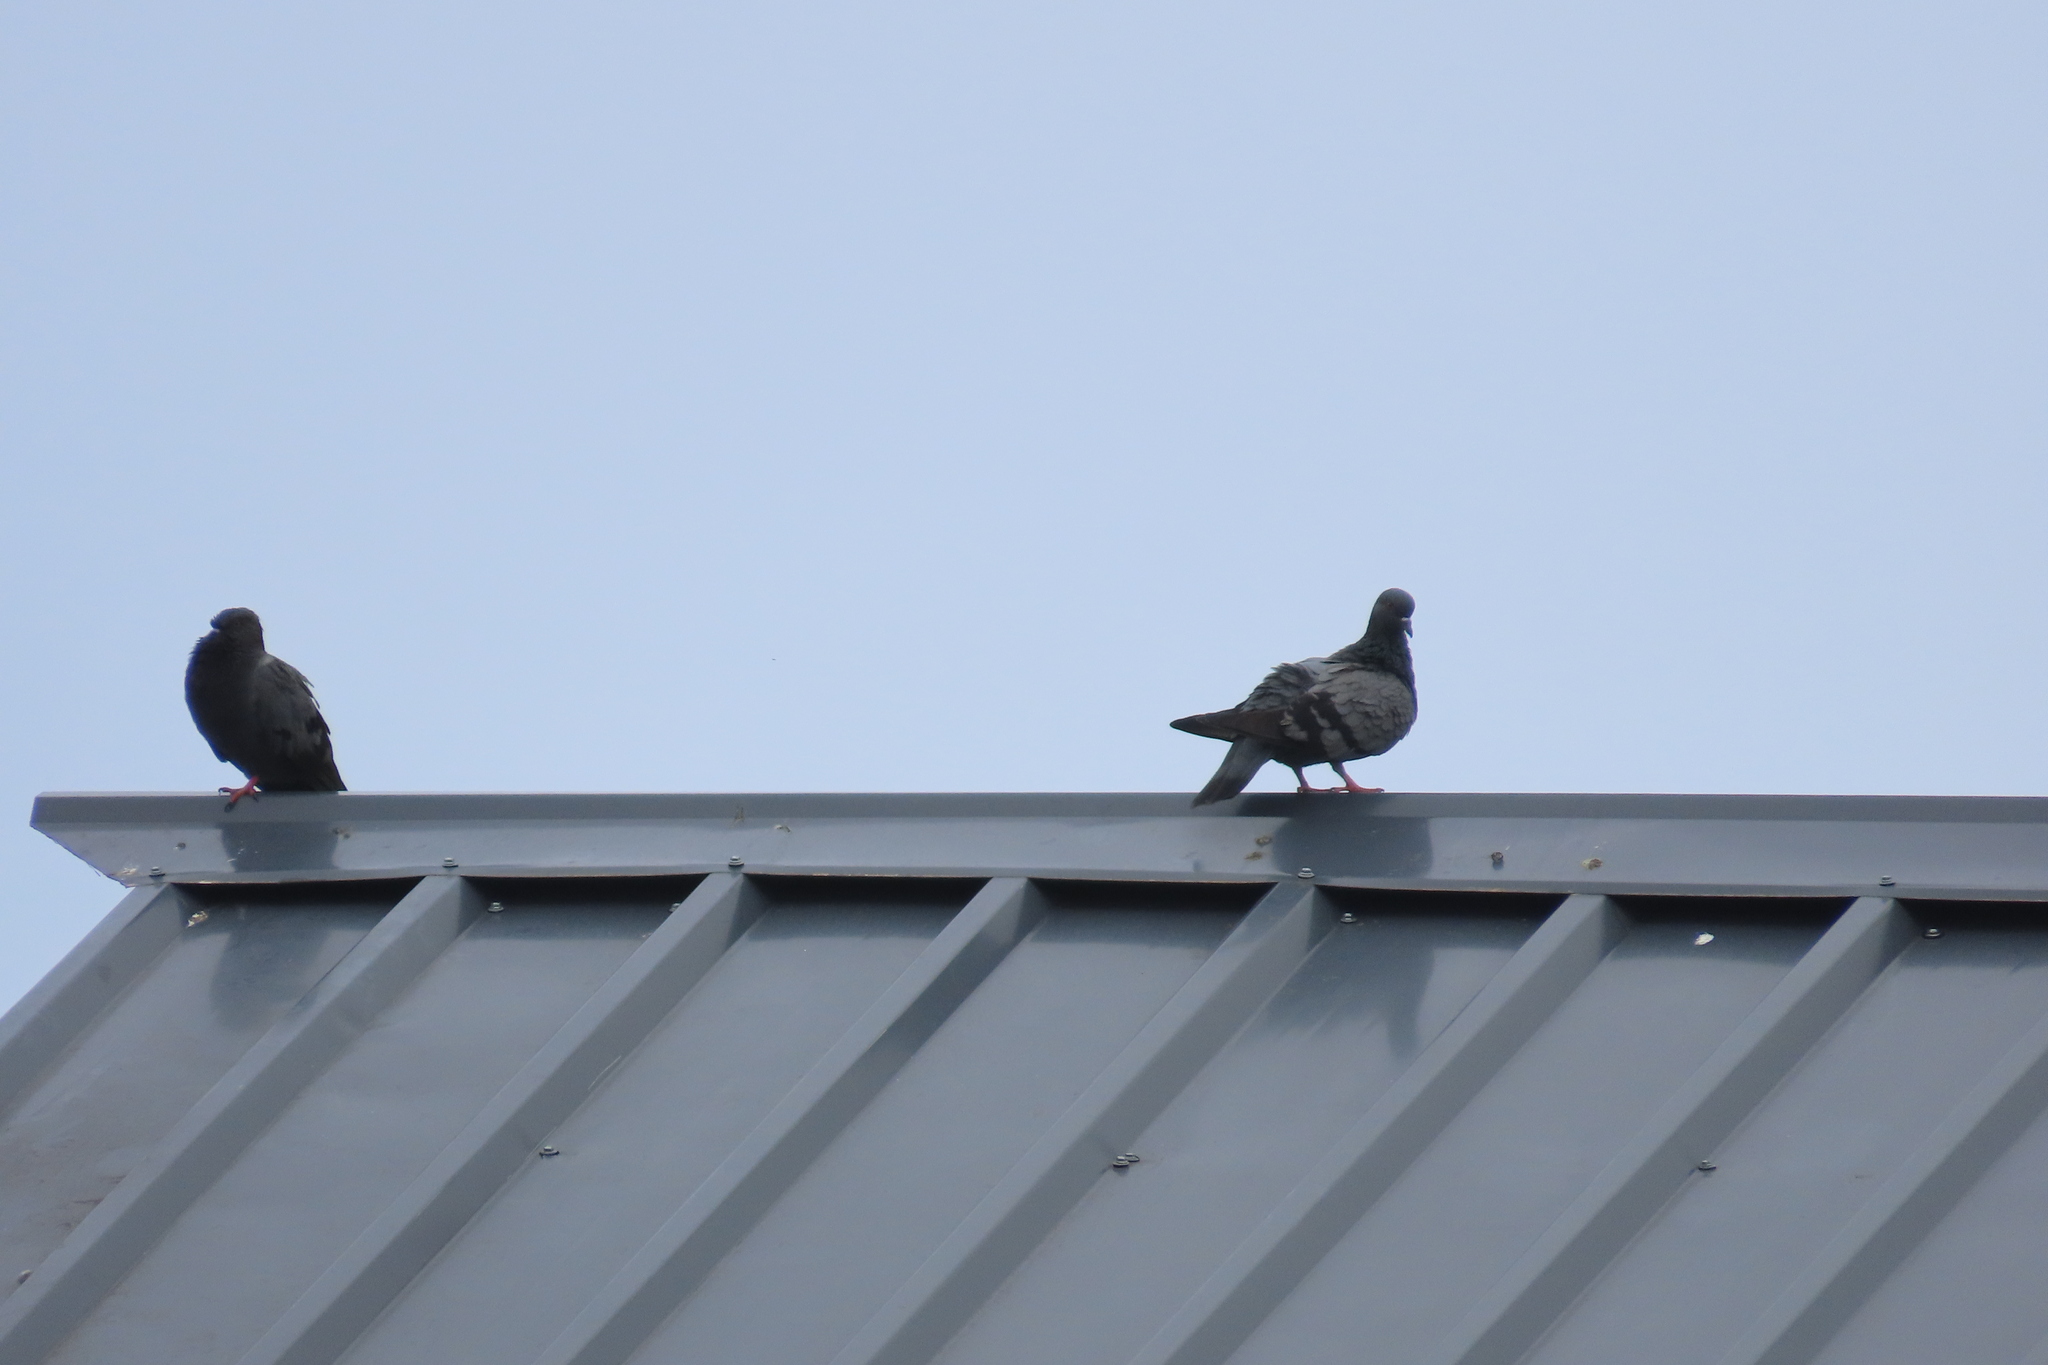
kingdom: Animalia
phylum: Chordata
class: Aves
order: Columbiformes
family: Columbidae
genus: Columba
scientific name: Columba livia
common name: Rock pigeon
